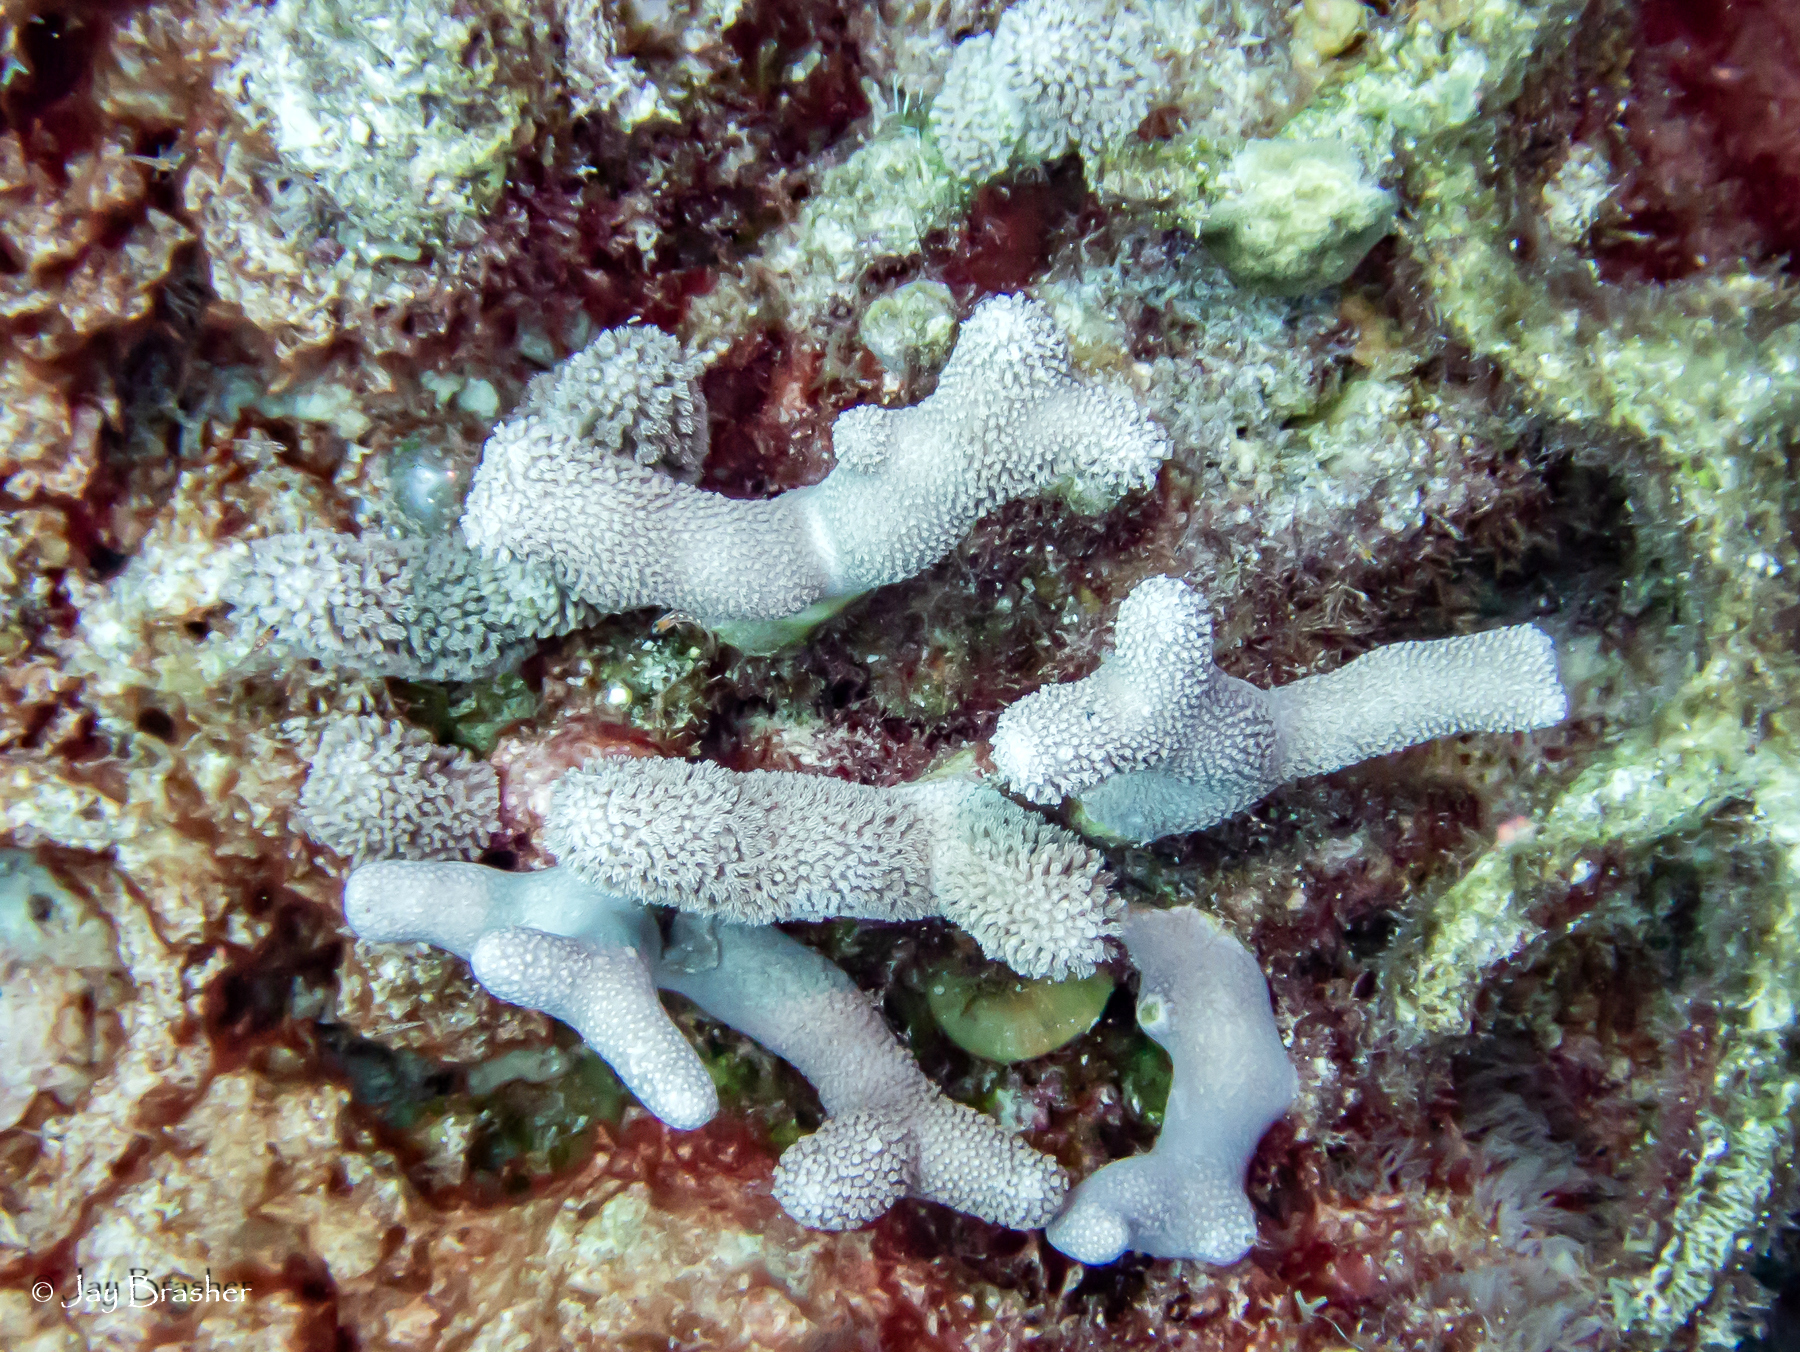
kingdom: Animalia
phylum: Cnidaria
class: Anthozoa
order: Scleractinia
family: Poritidae
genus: Porites
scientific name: Porites porites
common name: Finger coral
